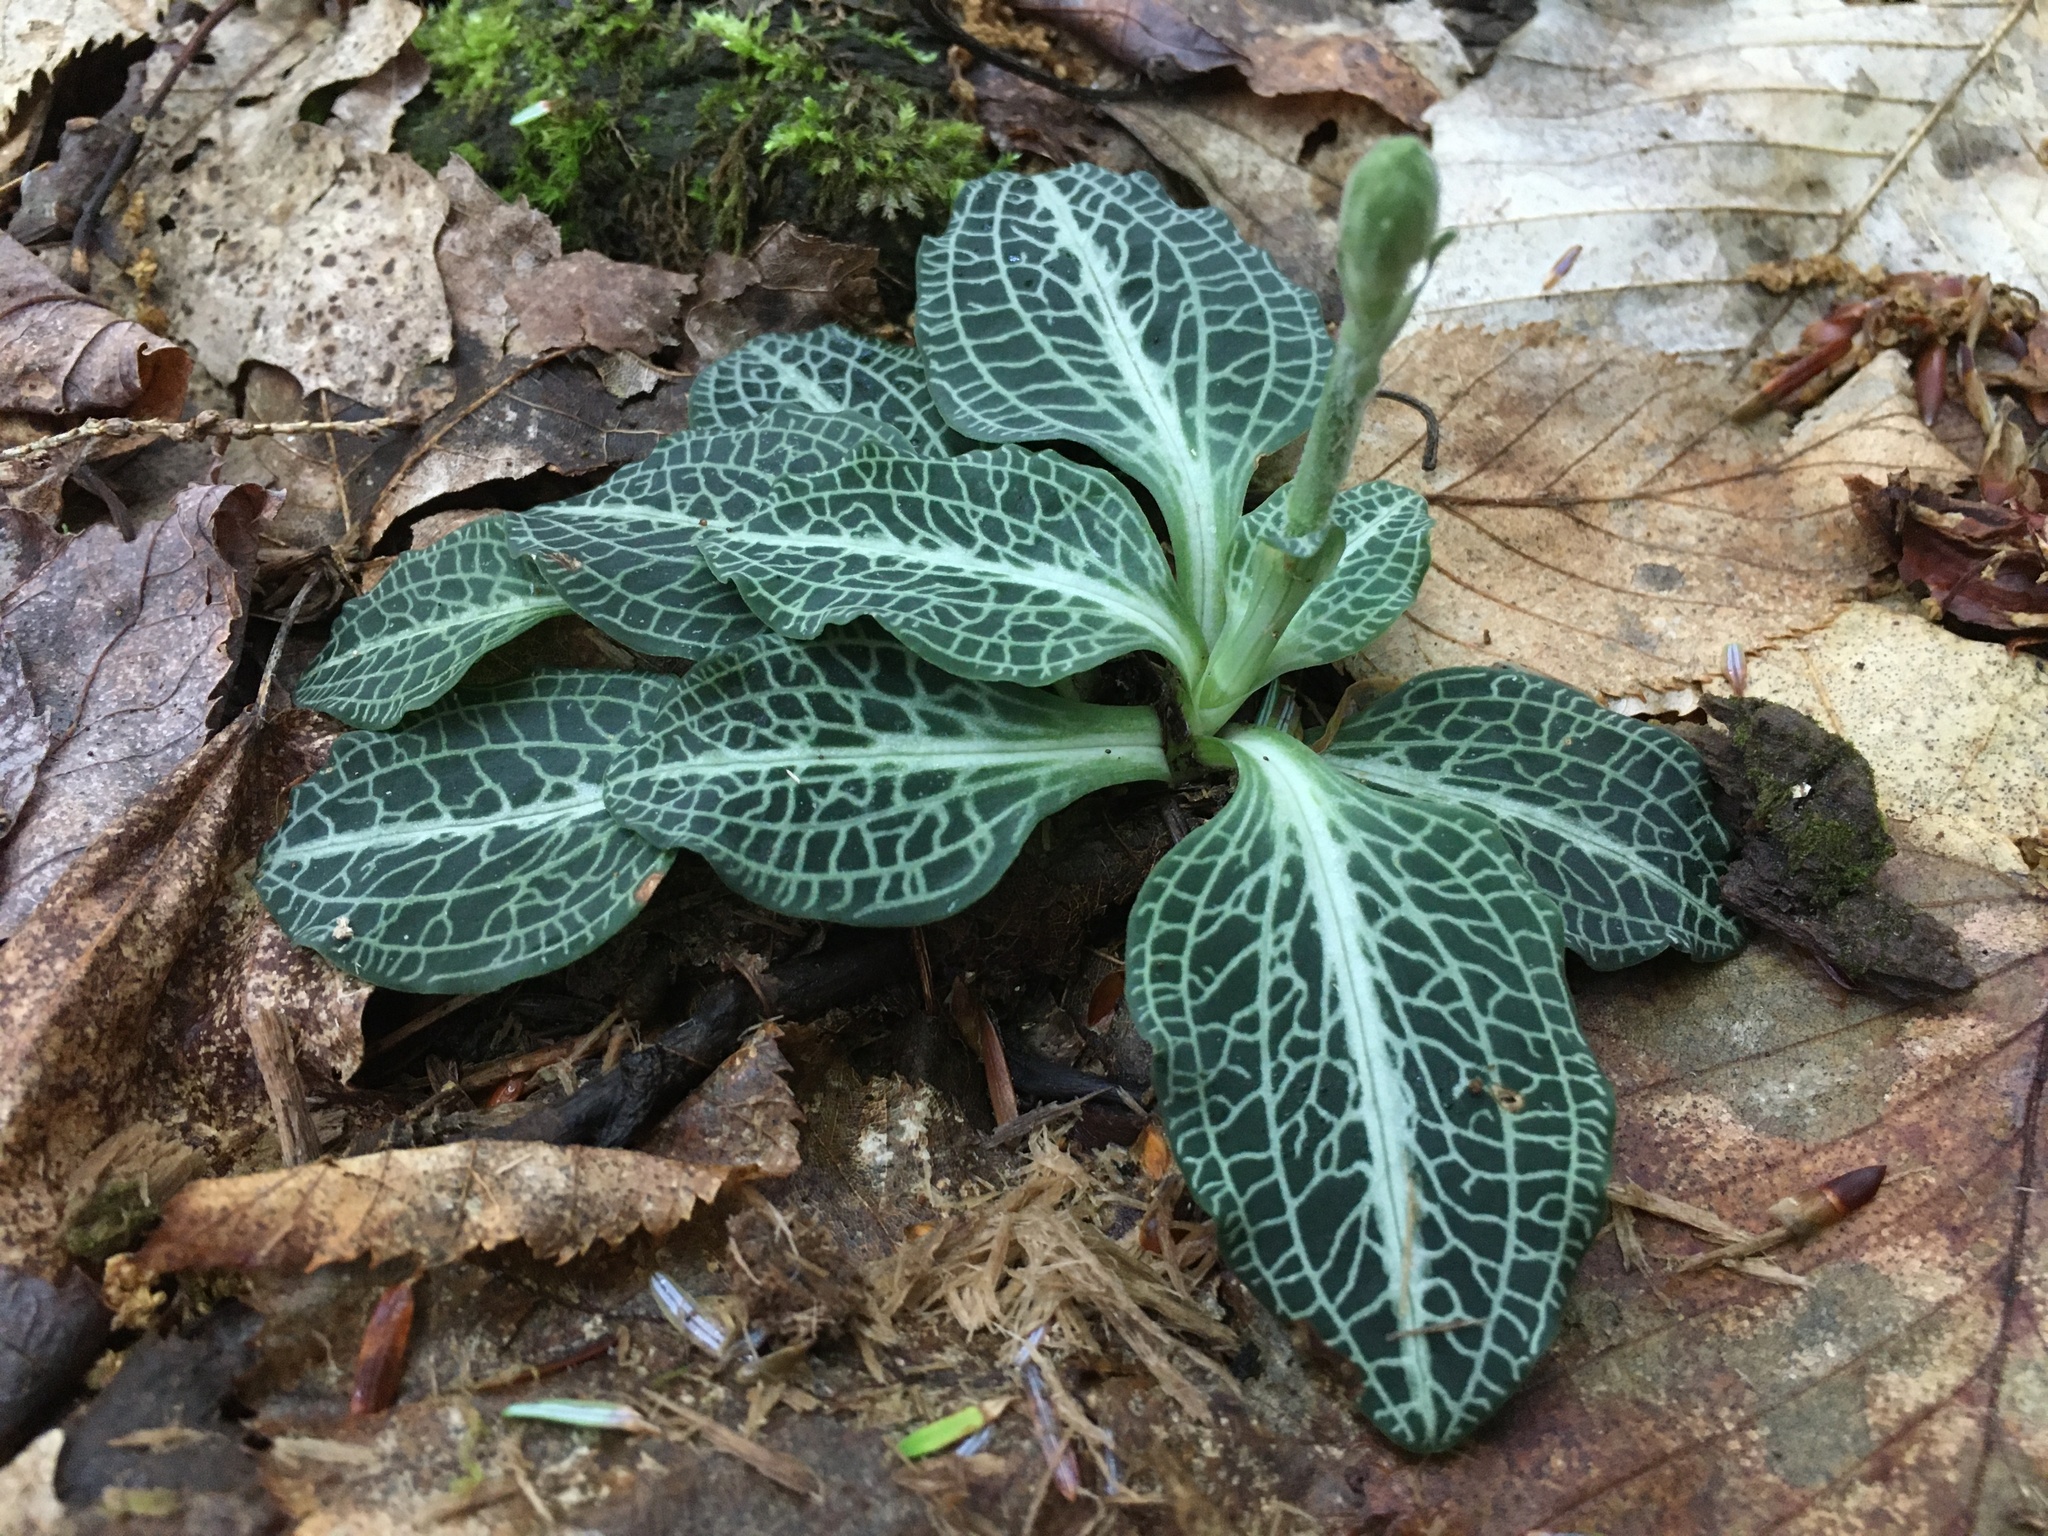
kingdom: Plantae
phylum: Tracheophyta
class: Liliopsida
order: Asparagales
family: Orchidaceae
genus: Goodyera
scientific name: Goodyera pubescens
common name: Downy rattlesnake-plantain
